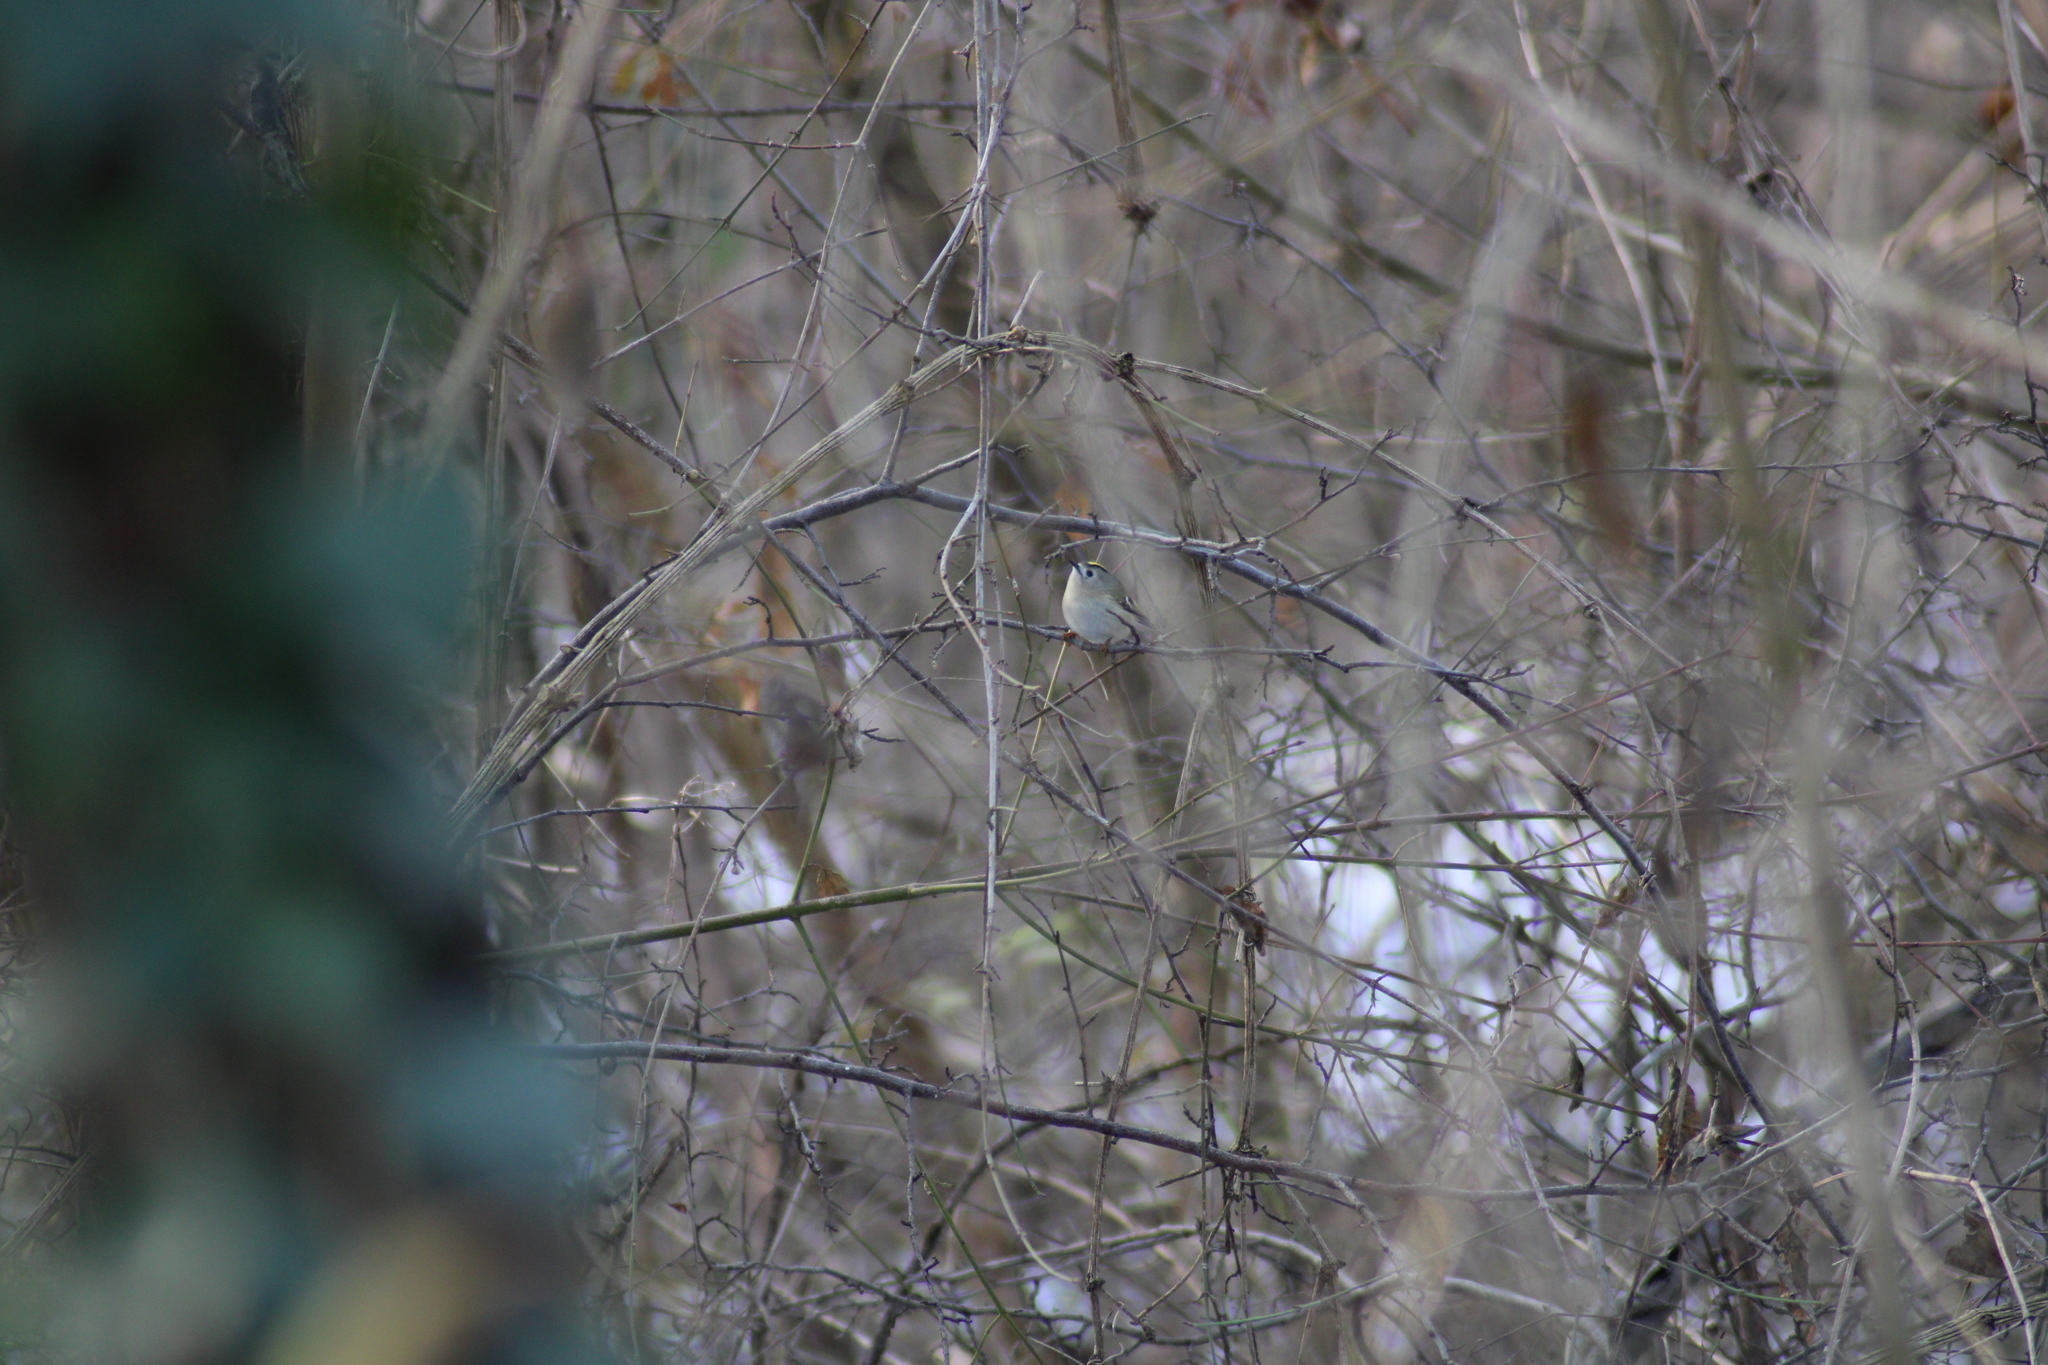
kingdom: Animalia
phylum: Chordata
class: Aves
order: Passeriformes
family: Regulidae
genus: Regulus
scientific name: Regulus regulus
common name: Goldcrest
